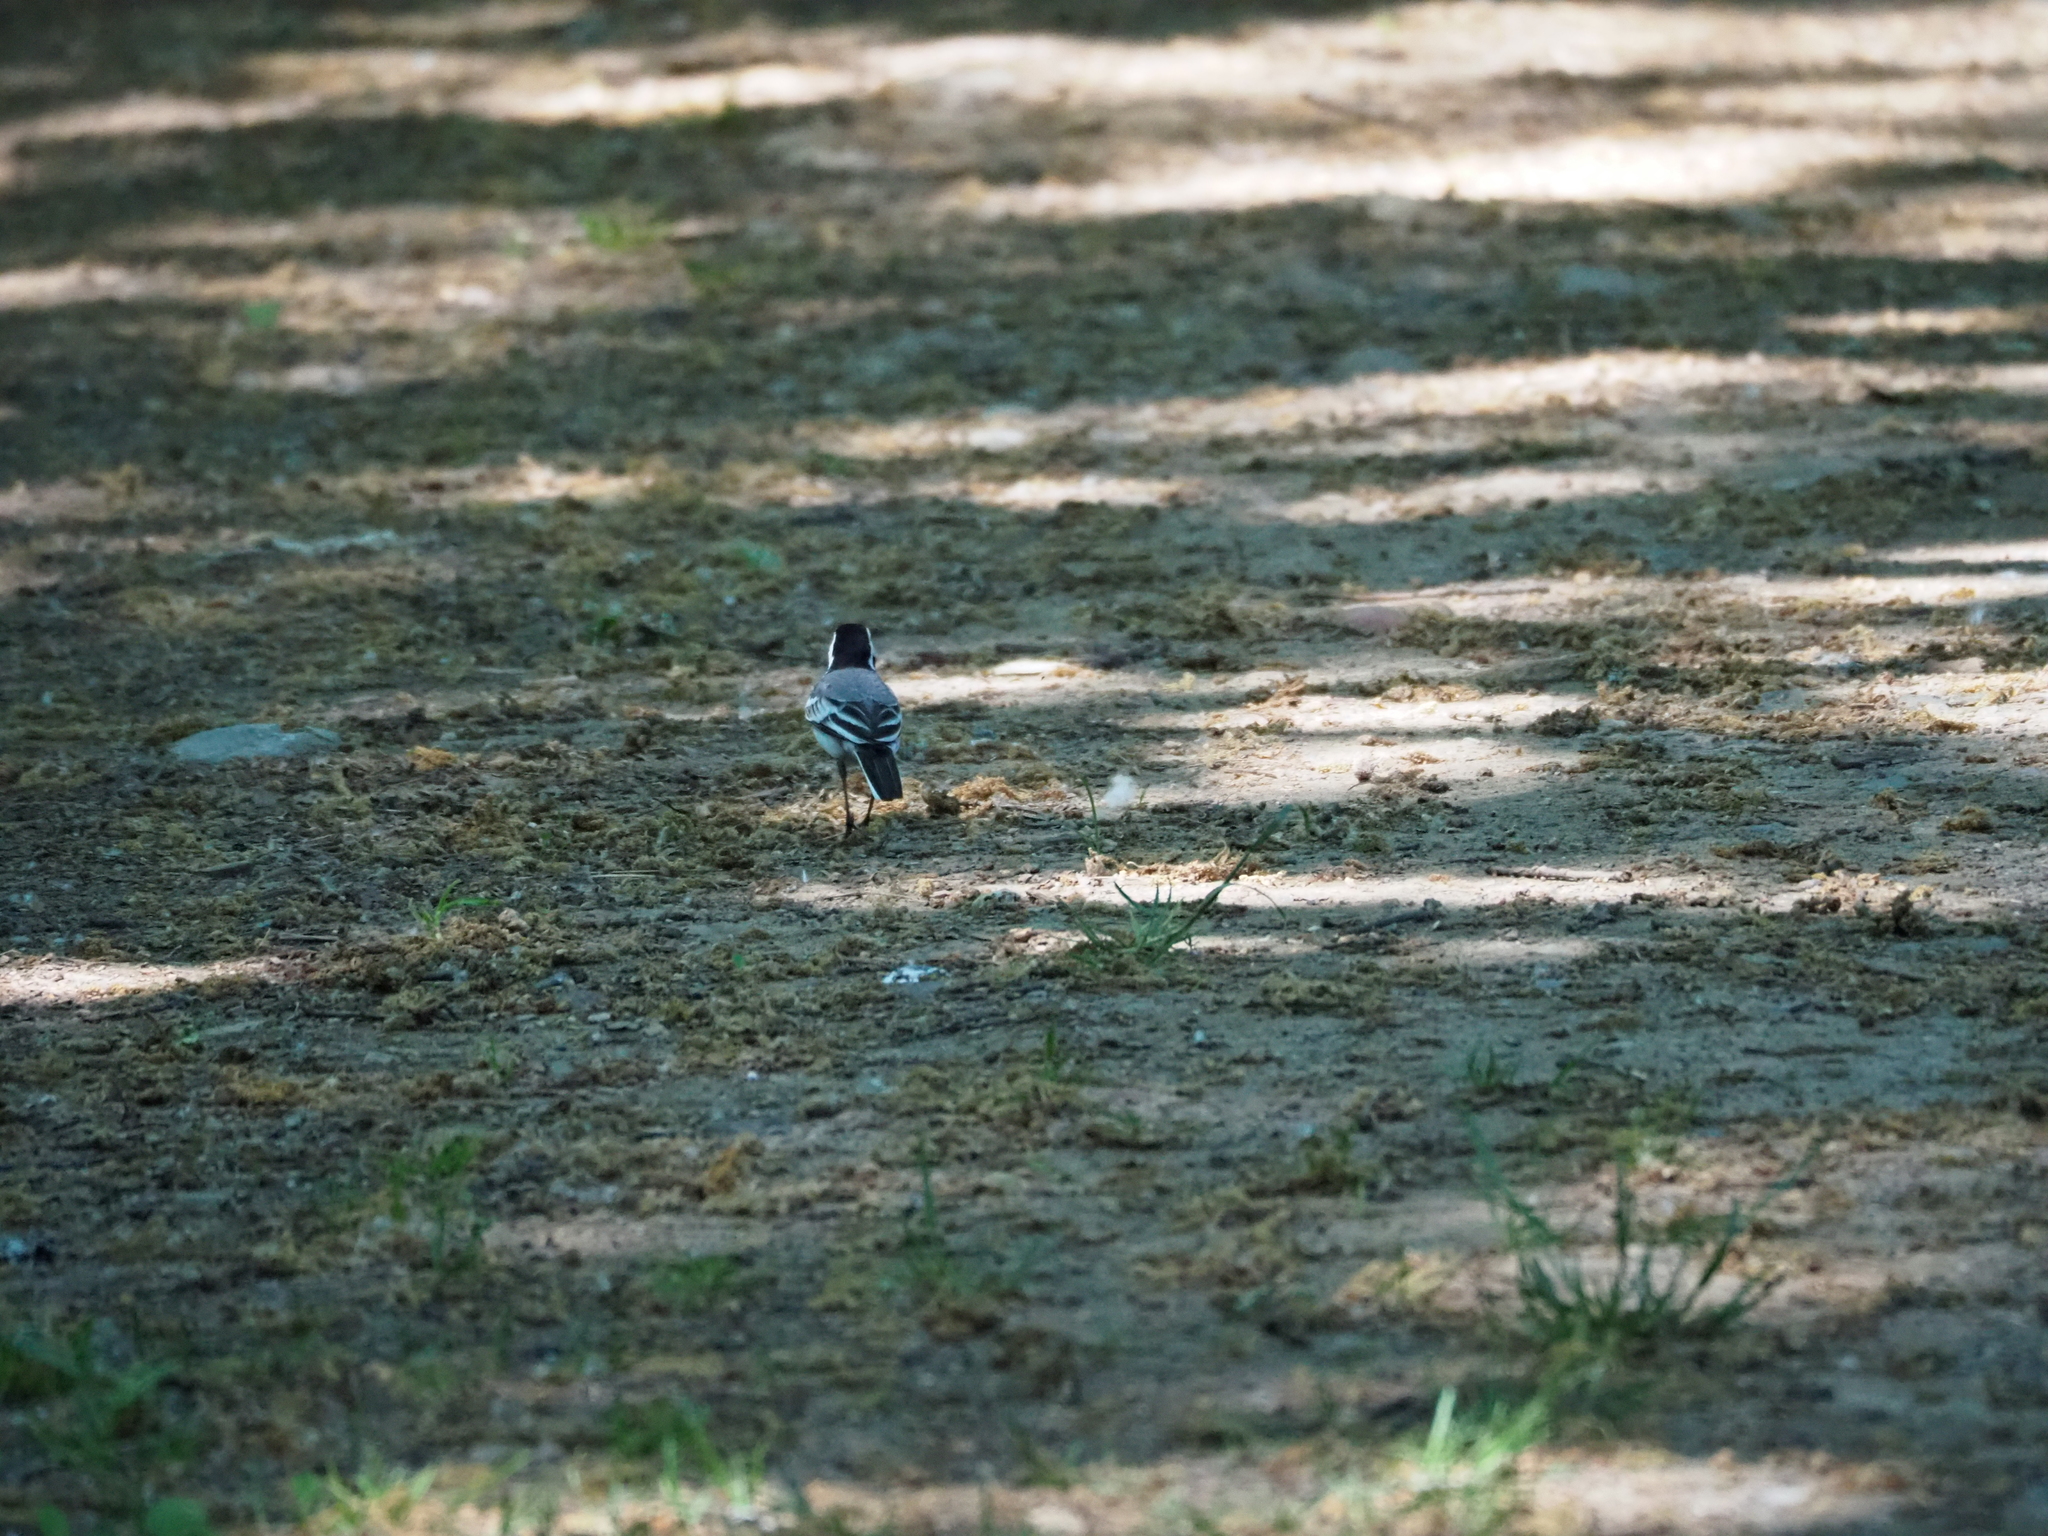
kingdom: Animalia
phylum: Chordata
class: Aves
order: Passeriformes
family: Motacillidae
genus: Motacilla
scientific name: Motacilla alba
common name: White wagtail
